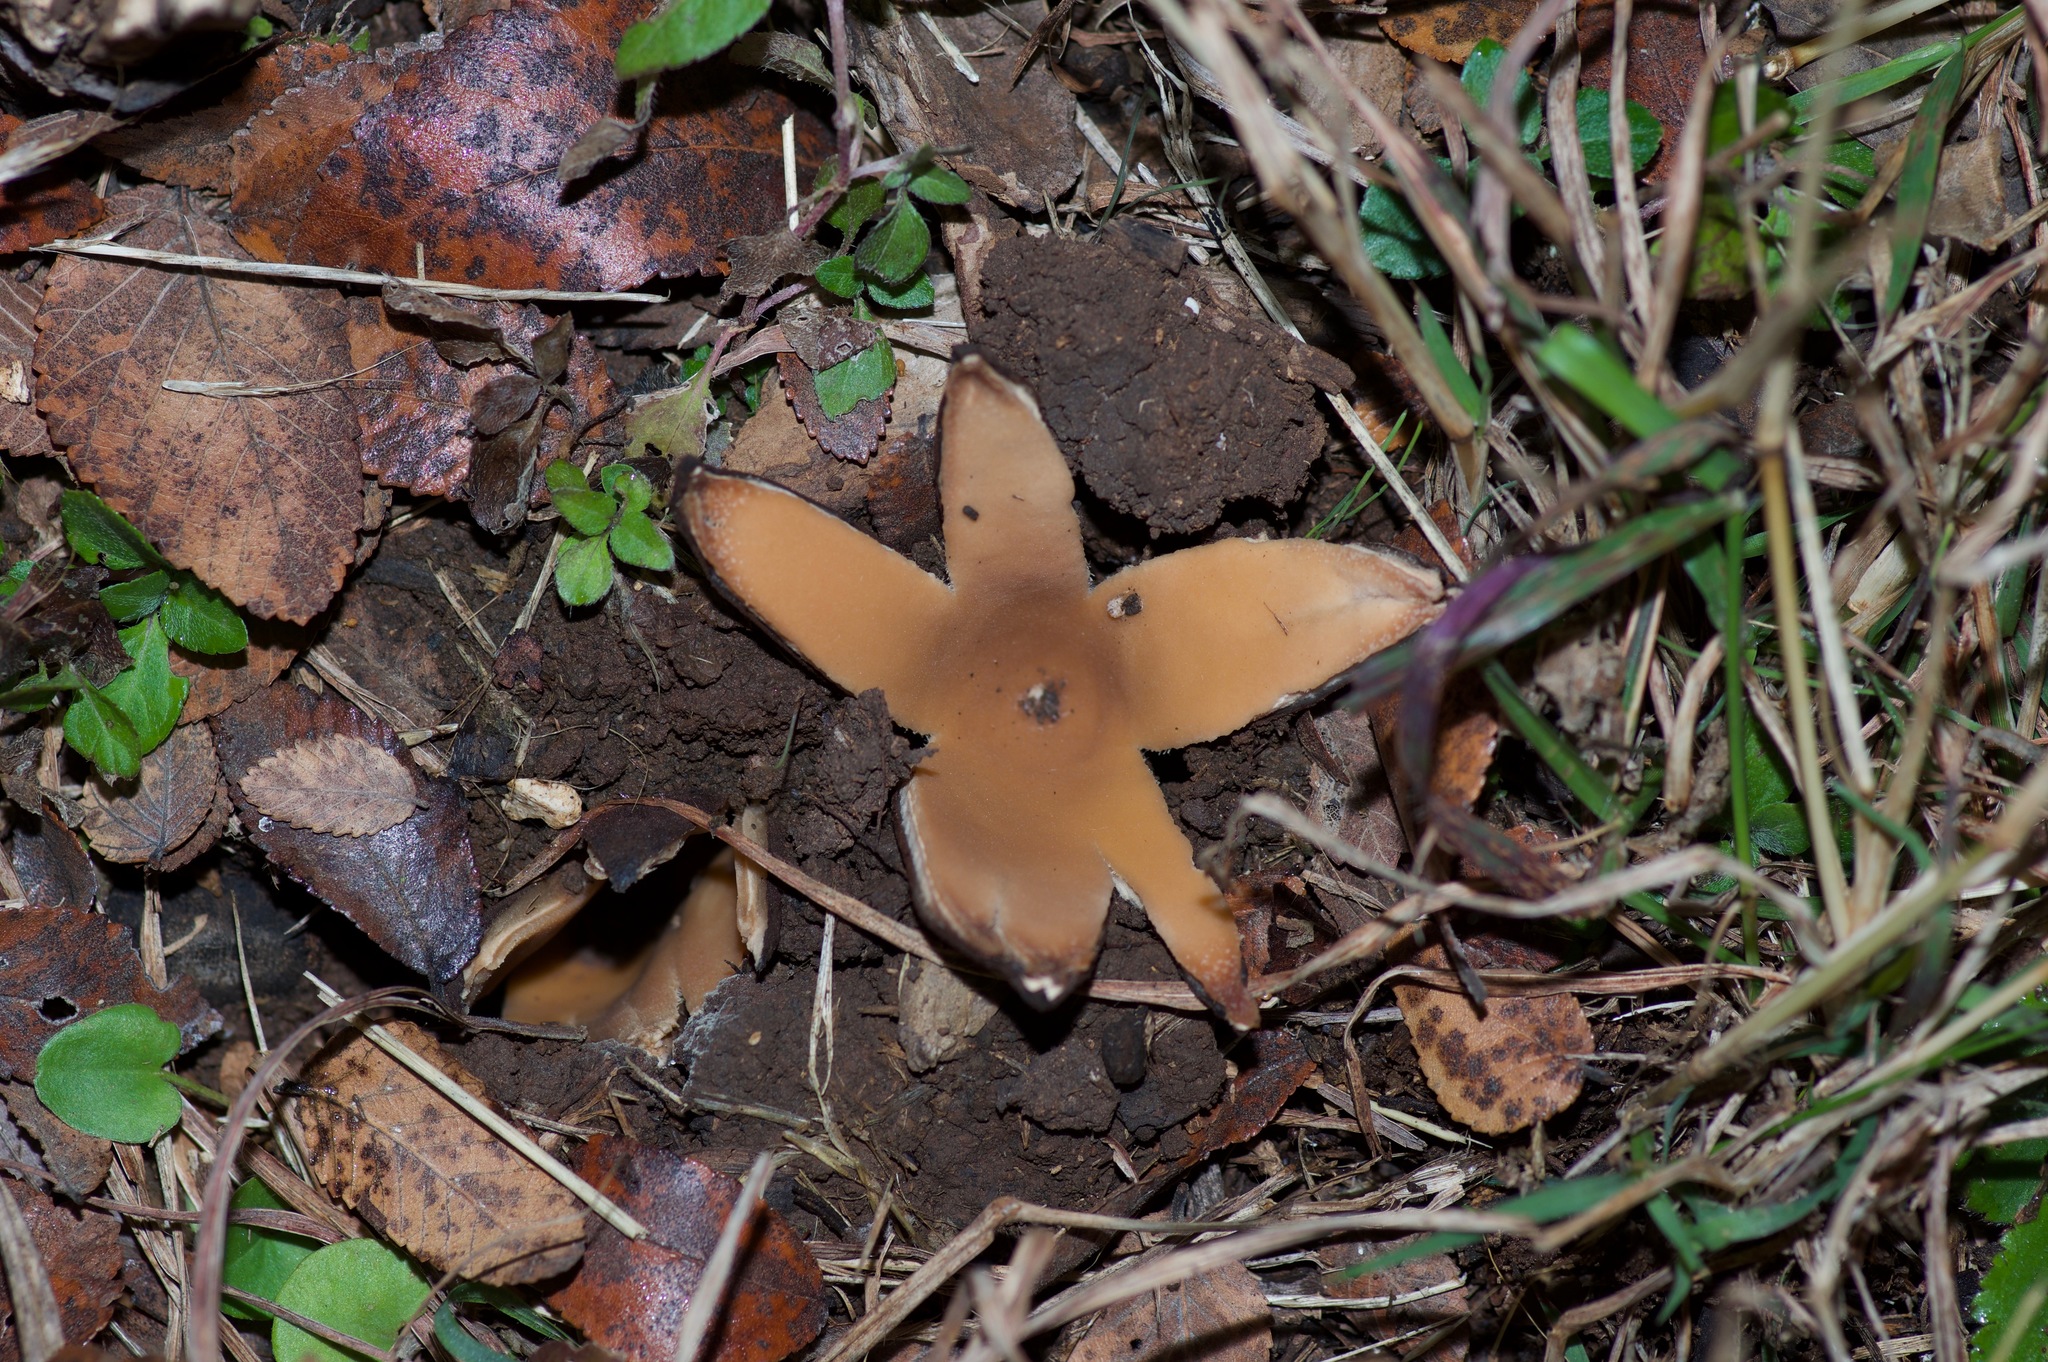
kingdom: Fungi
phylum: Ascomycota
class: Pezizomycetes
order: Pezizales
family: Chorioactidaceae
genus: Chorioactis
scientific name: Chorioactis geaster
